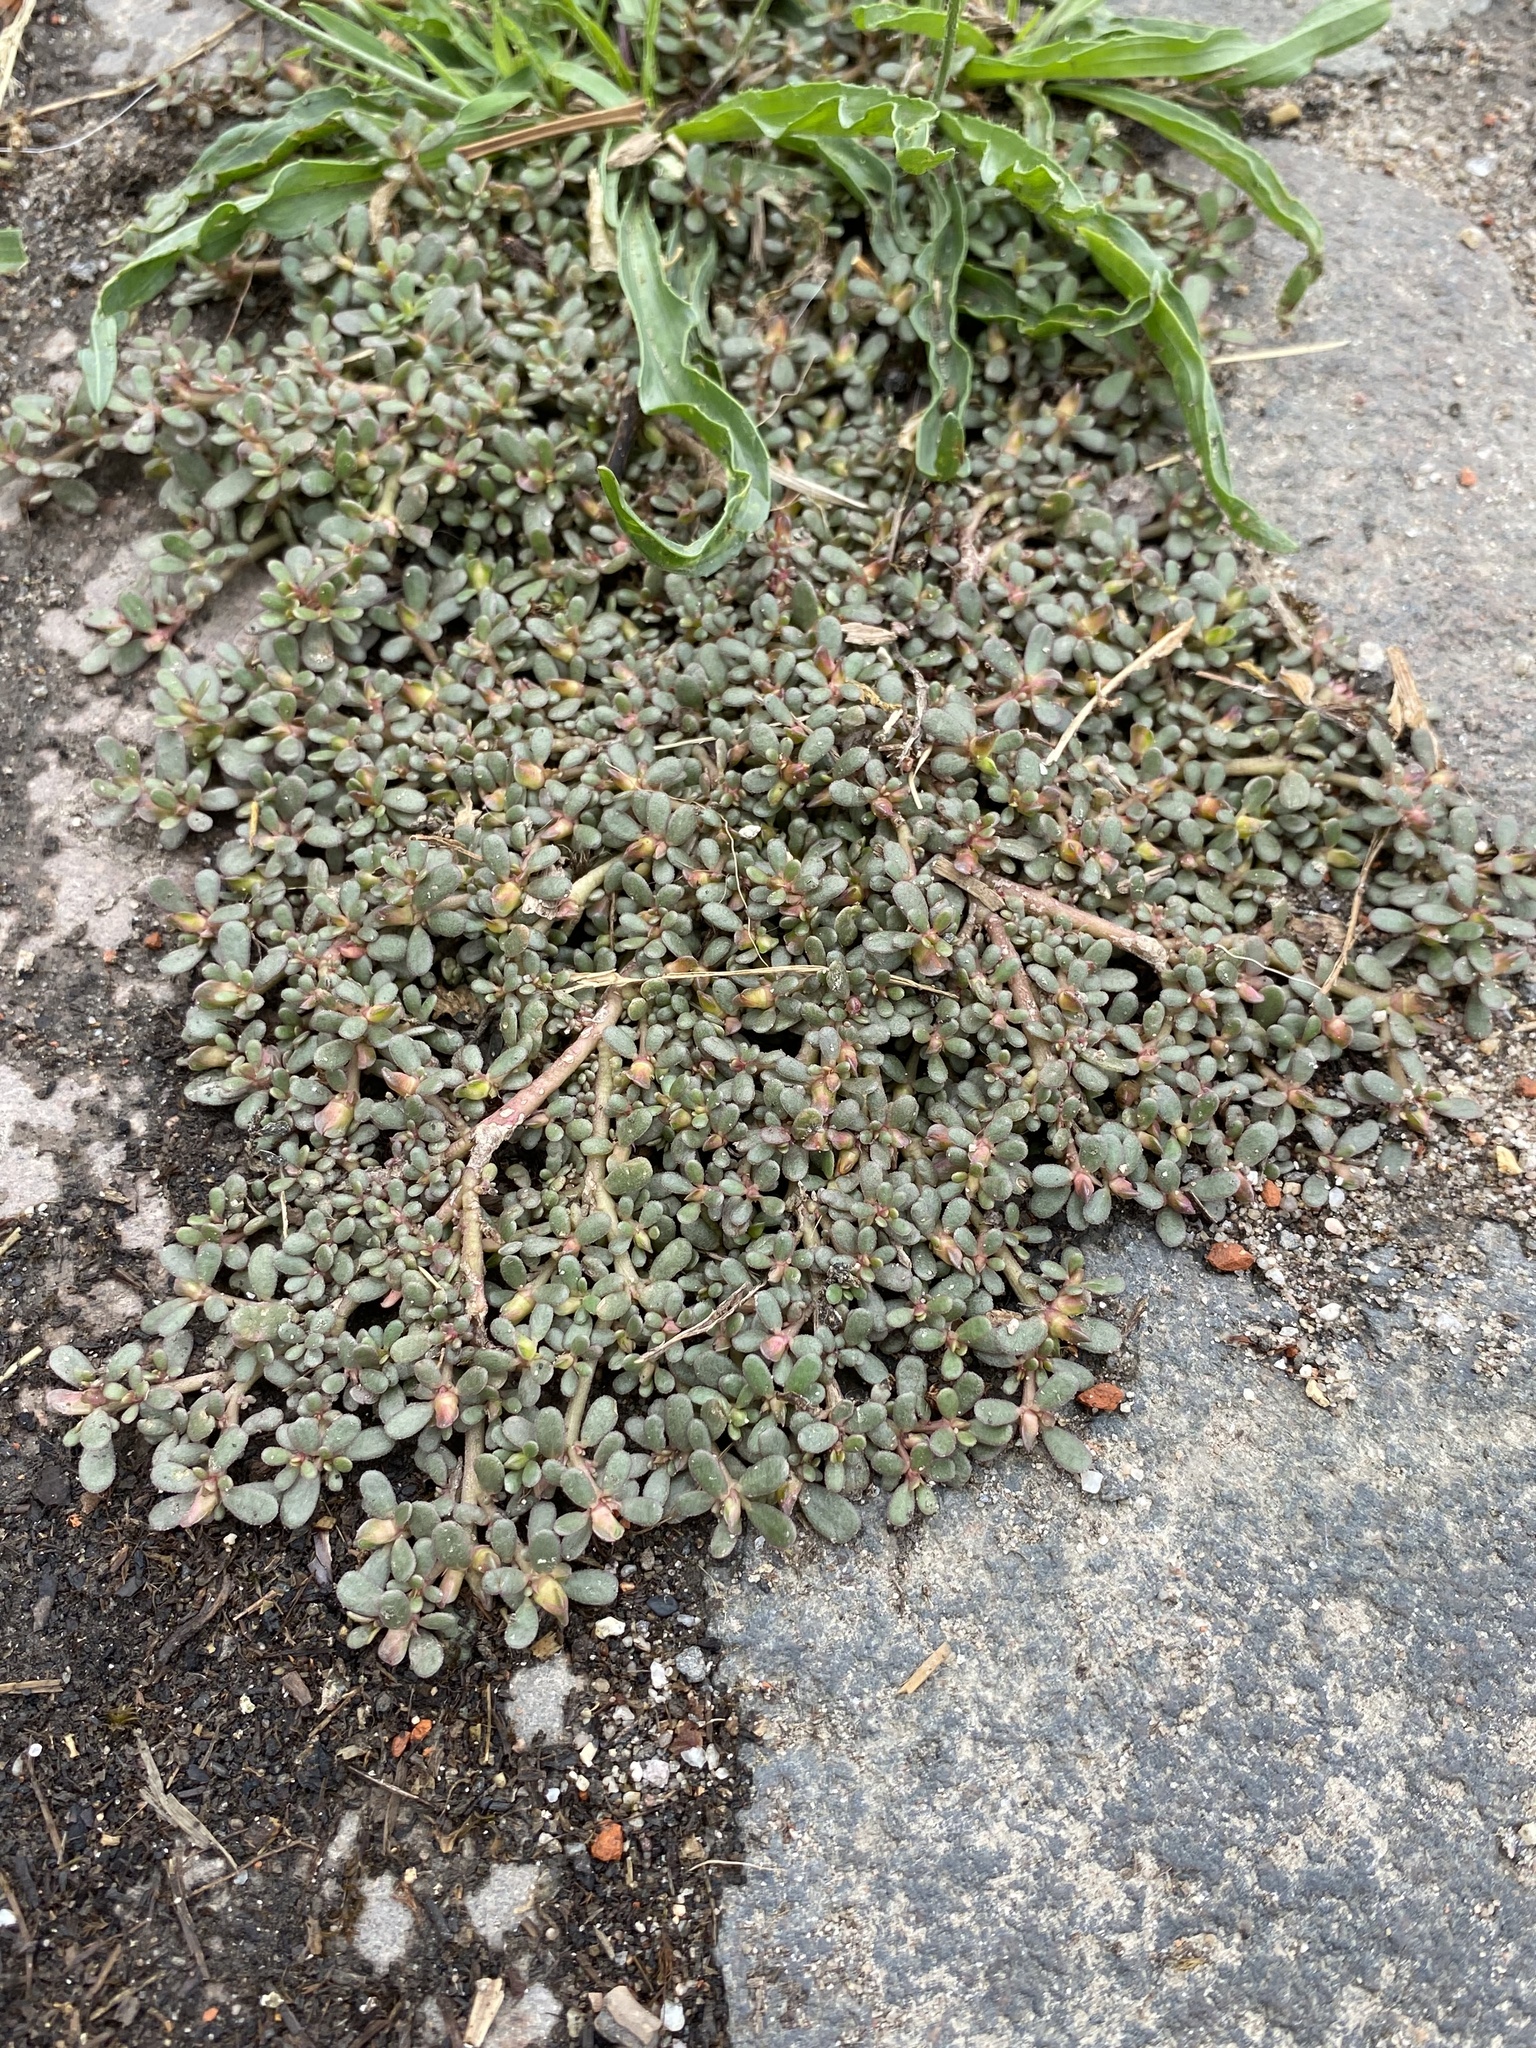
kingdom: Plantae
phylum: Tracheophyta
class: Magnoliopsida
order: Caryophyllales
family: Portulacaceae
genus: Portulaca
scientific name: Portulaca oleracea
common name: Common purslane
